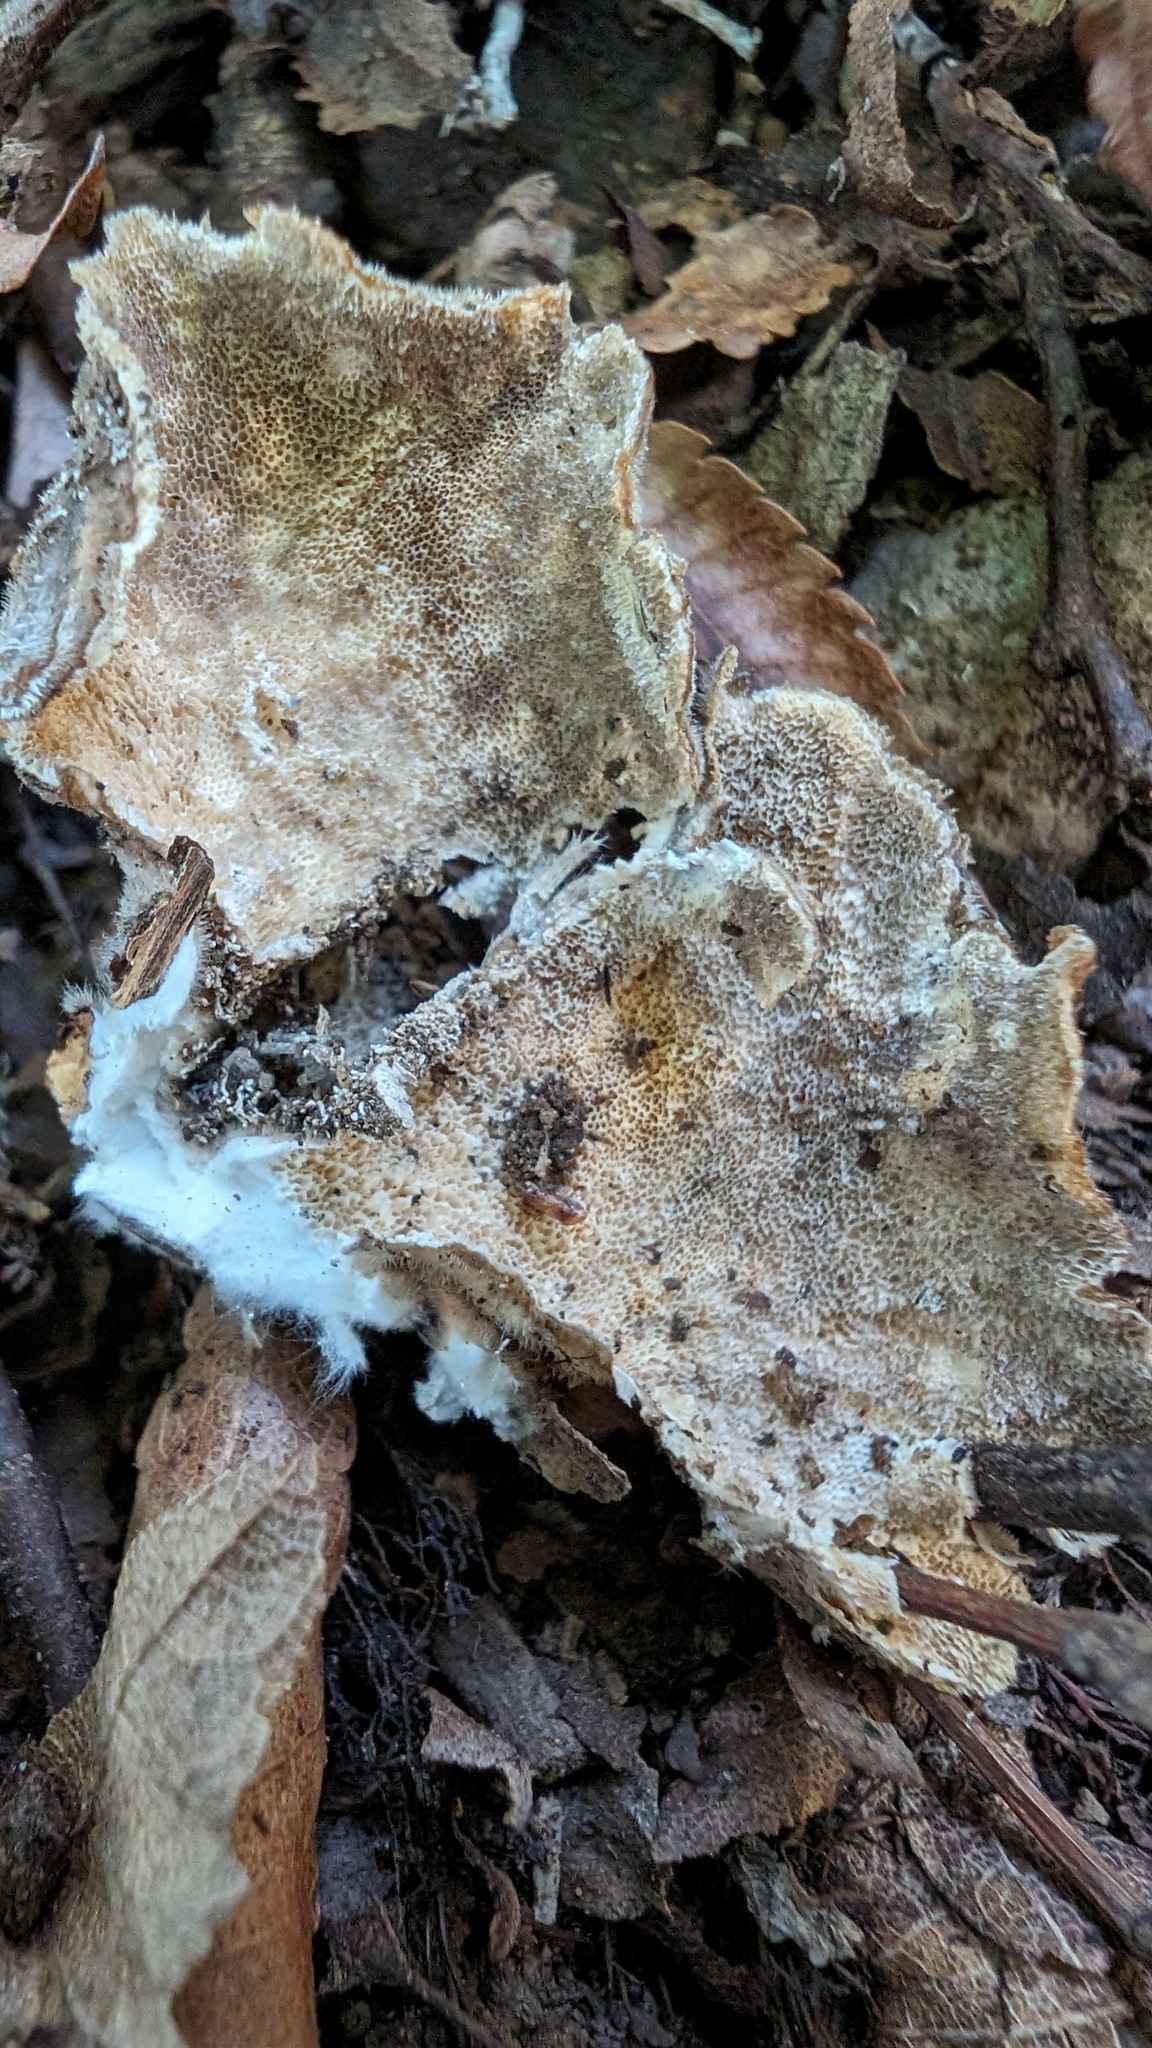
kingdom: Fungi
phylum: Basidiomycota
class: Agaricomycetes
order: Polyporales
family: Polyporaceae
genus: Trametes
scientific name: Trametes versicolor
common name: Turkeytail
